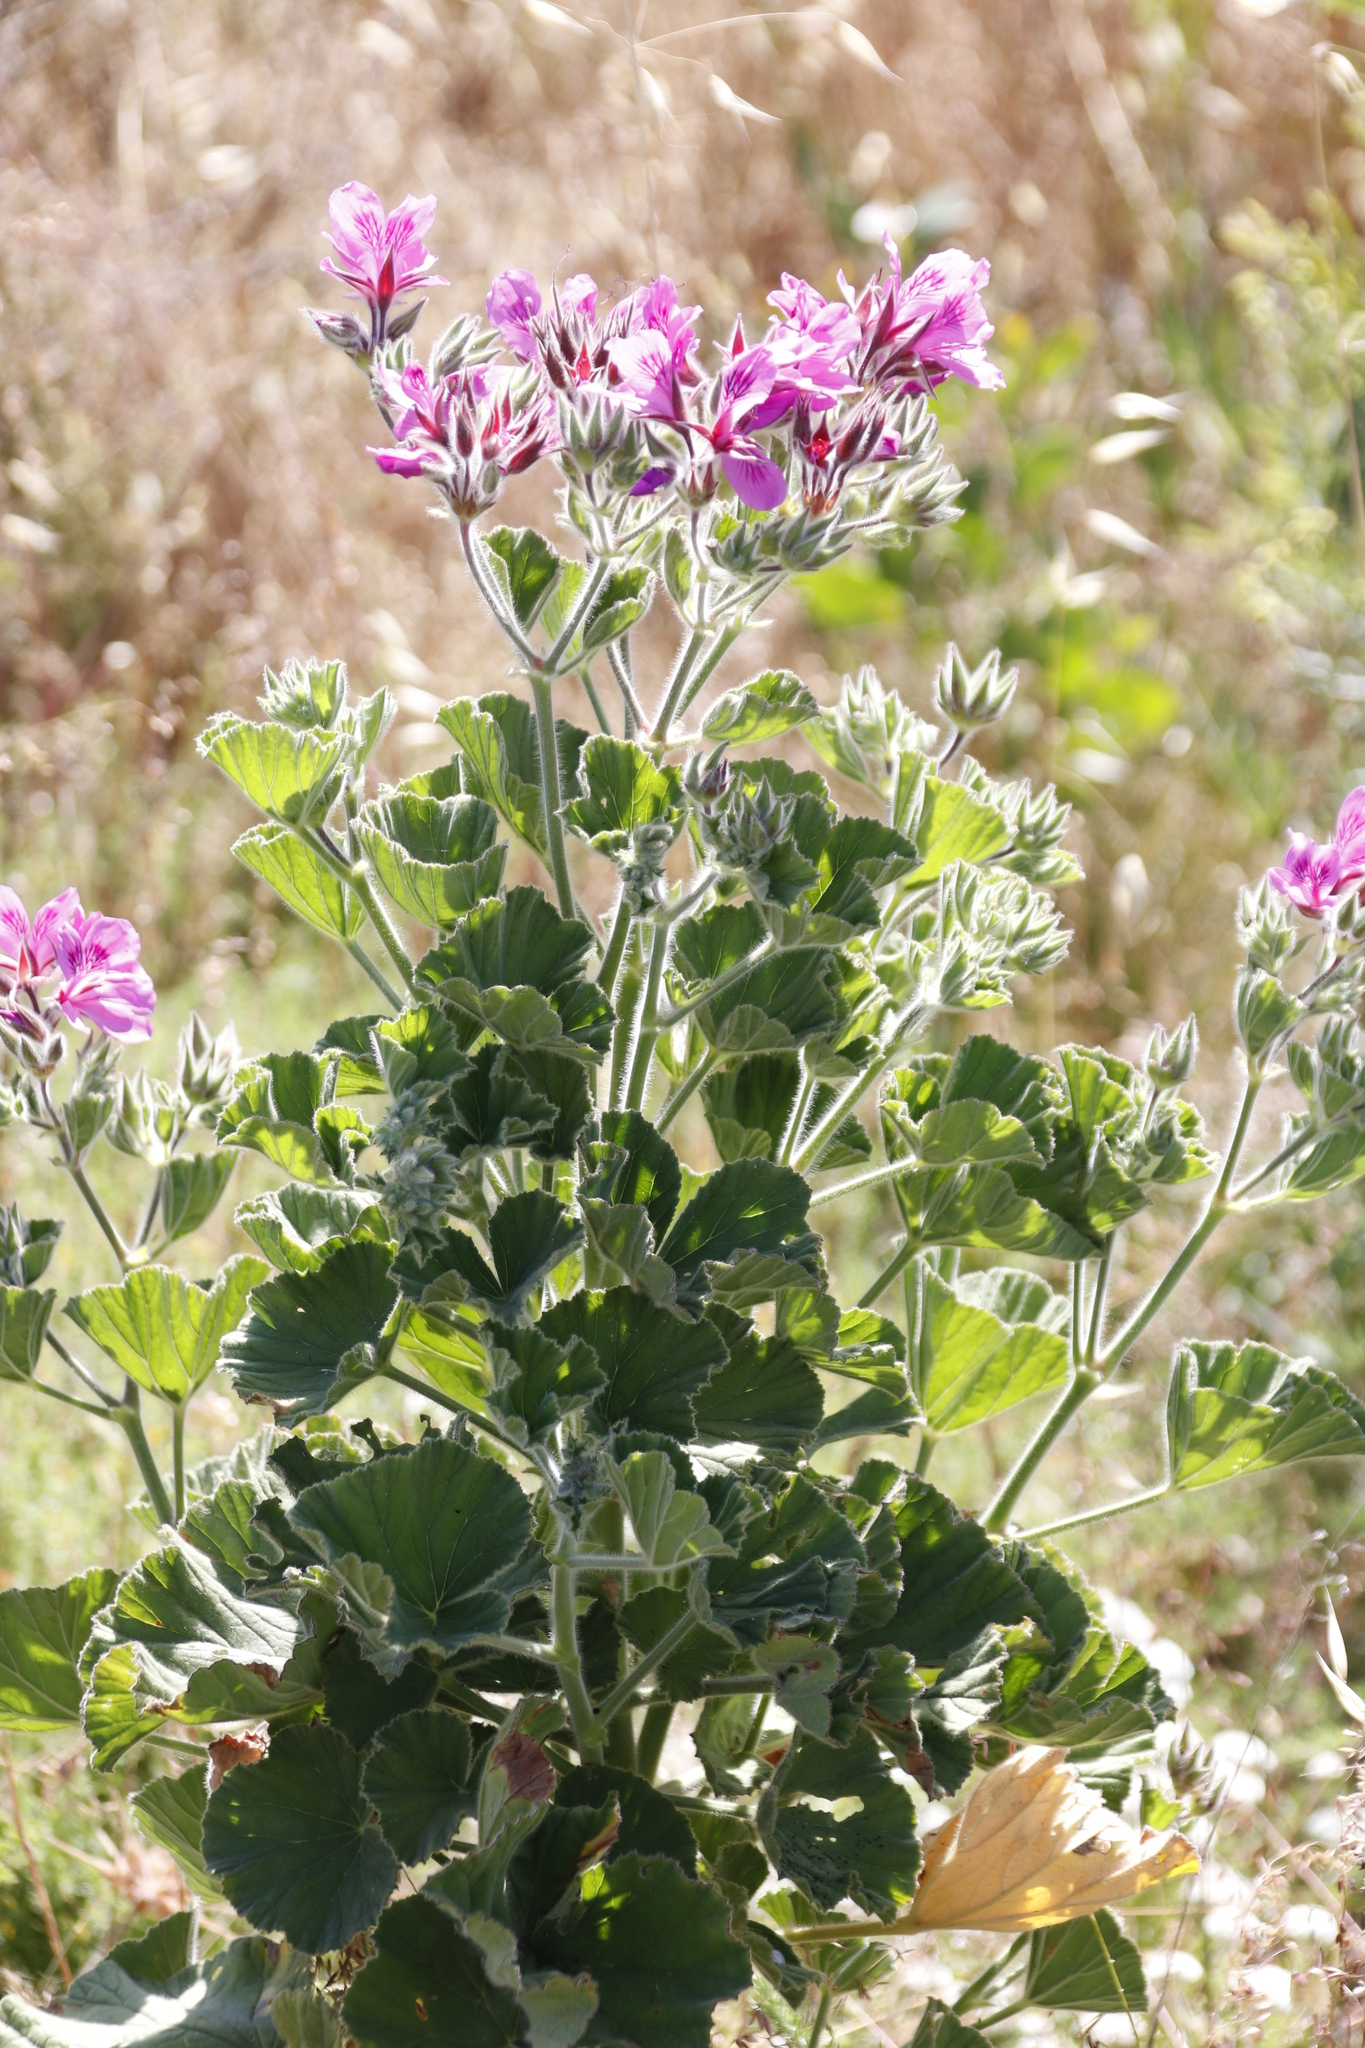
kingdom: Plantae
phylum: Tracheophyta
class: Magnoliopsida
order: Geraniales
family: Geraniaceae
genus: Pelargonium
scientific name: Pelargonium cucullatum
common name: Tree pelargonium
